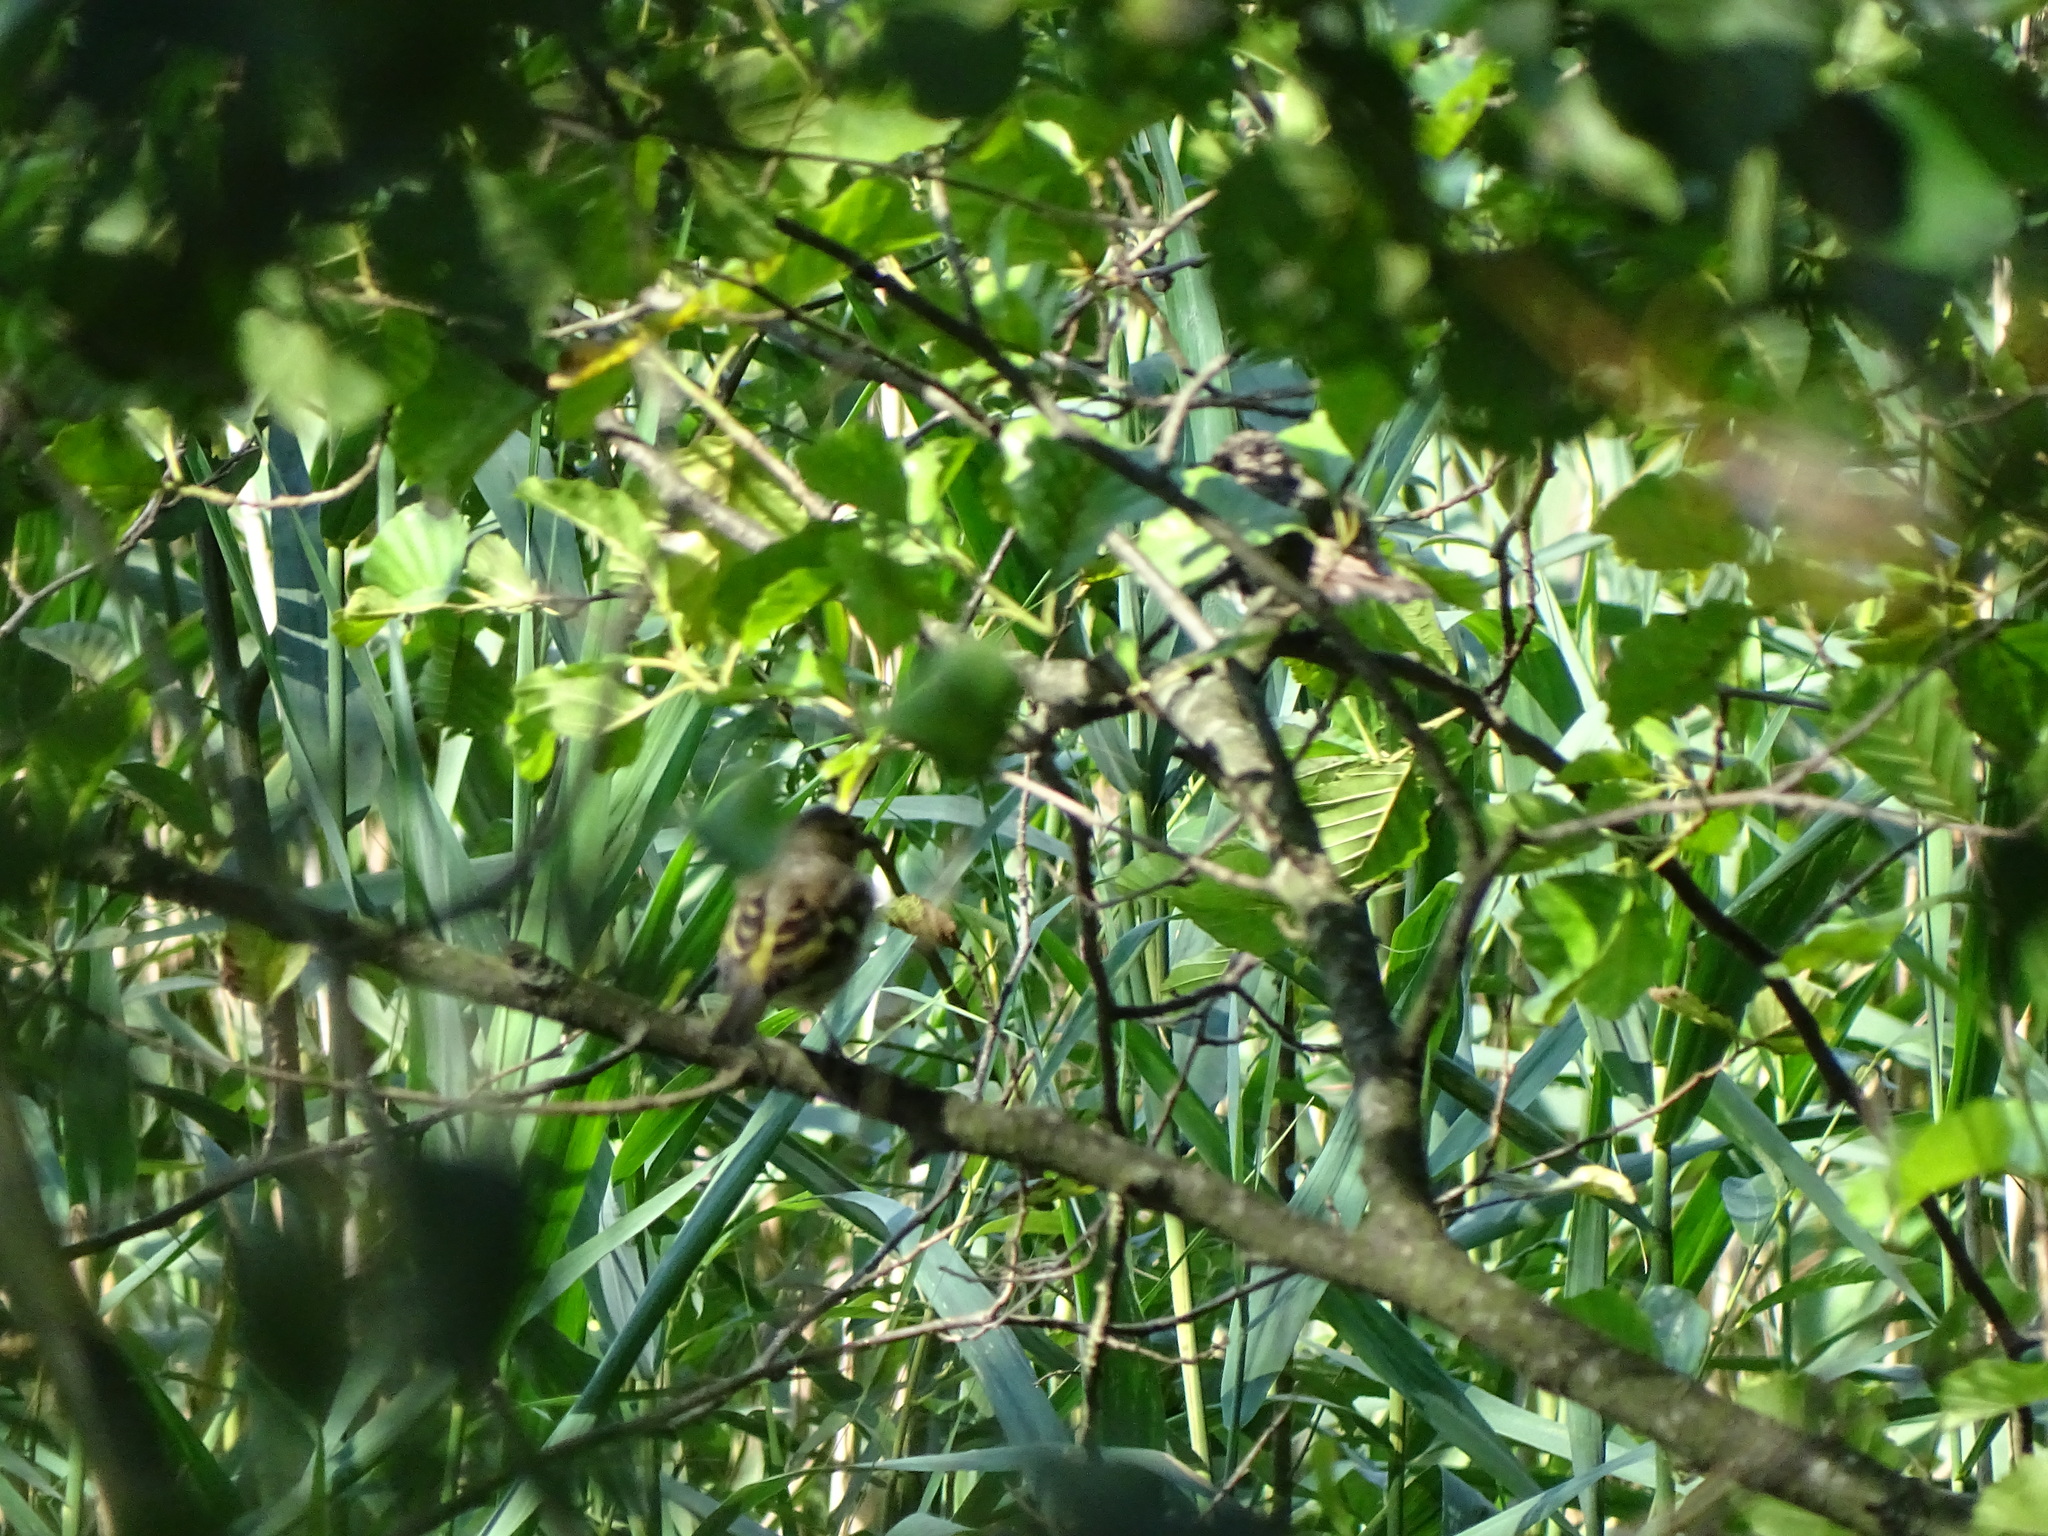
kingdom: Animalia
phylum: Chordata
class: Aves
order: Passeriformes
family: Fringillidae
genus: Fringilla
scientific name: Fringilla coelebs
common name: Common chaffinch
